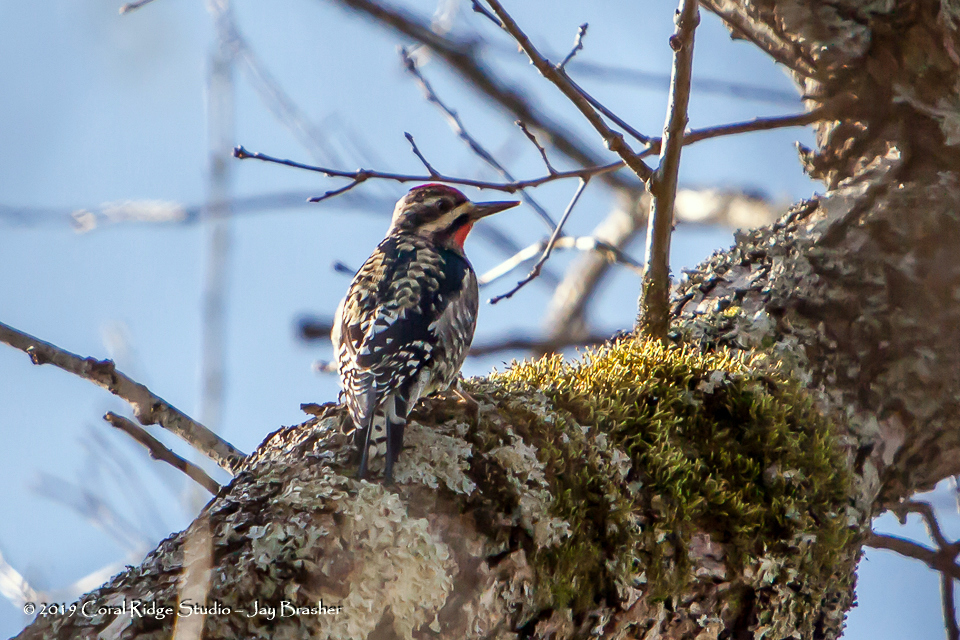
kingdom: Animalia
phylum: Chordata
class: Aves
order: Piciformes
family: Picidae
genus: Sphyrapicus
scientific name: Sphyrapicus varius
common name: Yellow-bellied sapsucker
